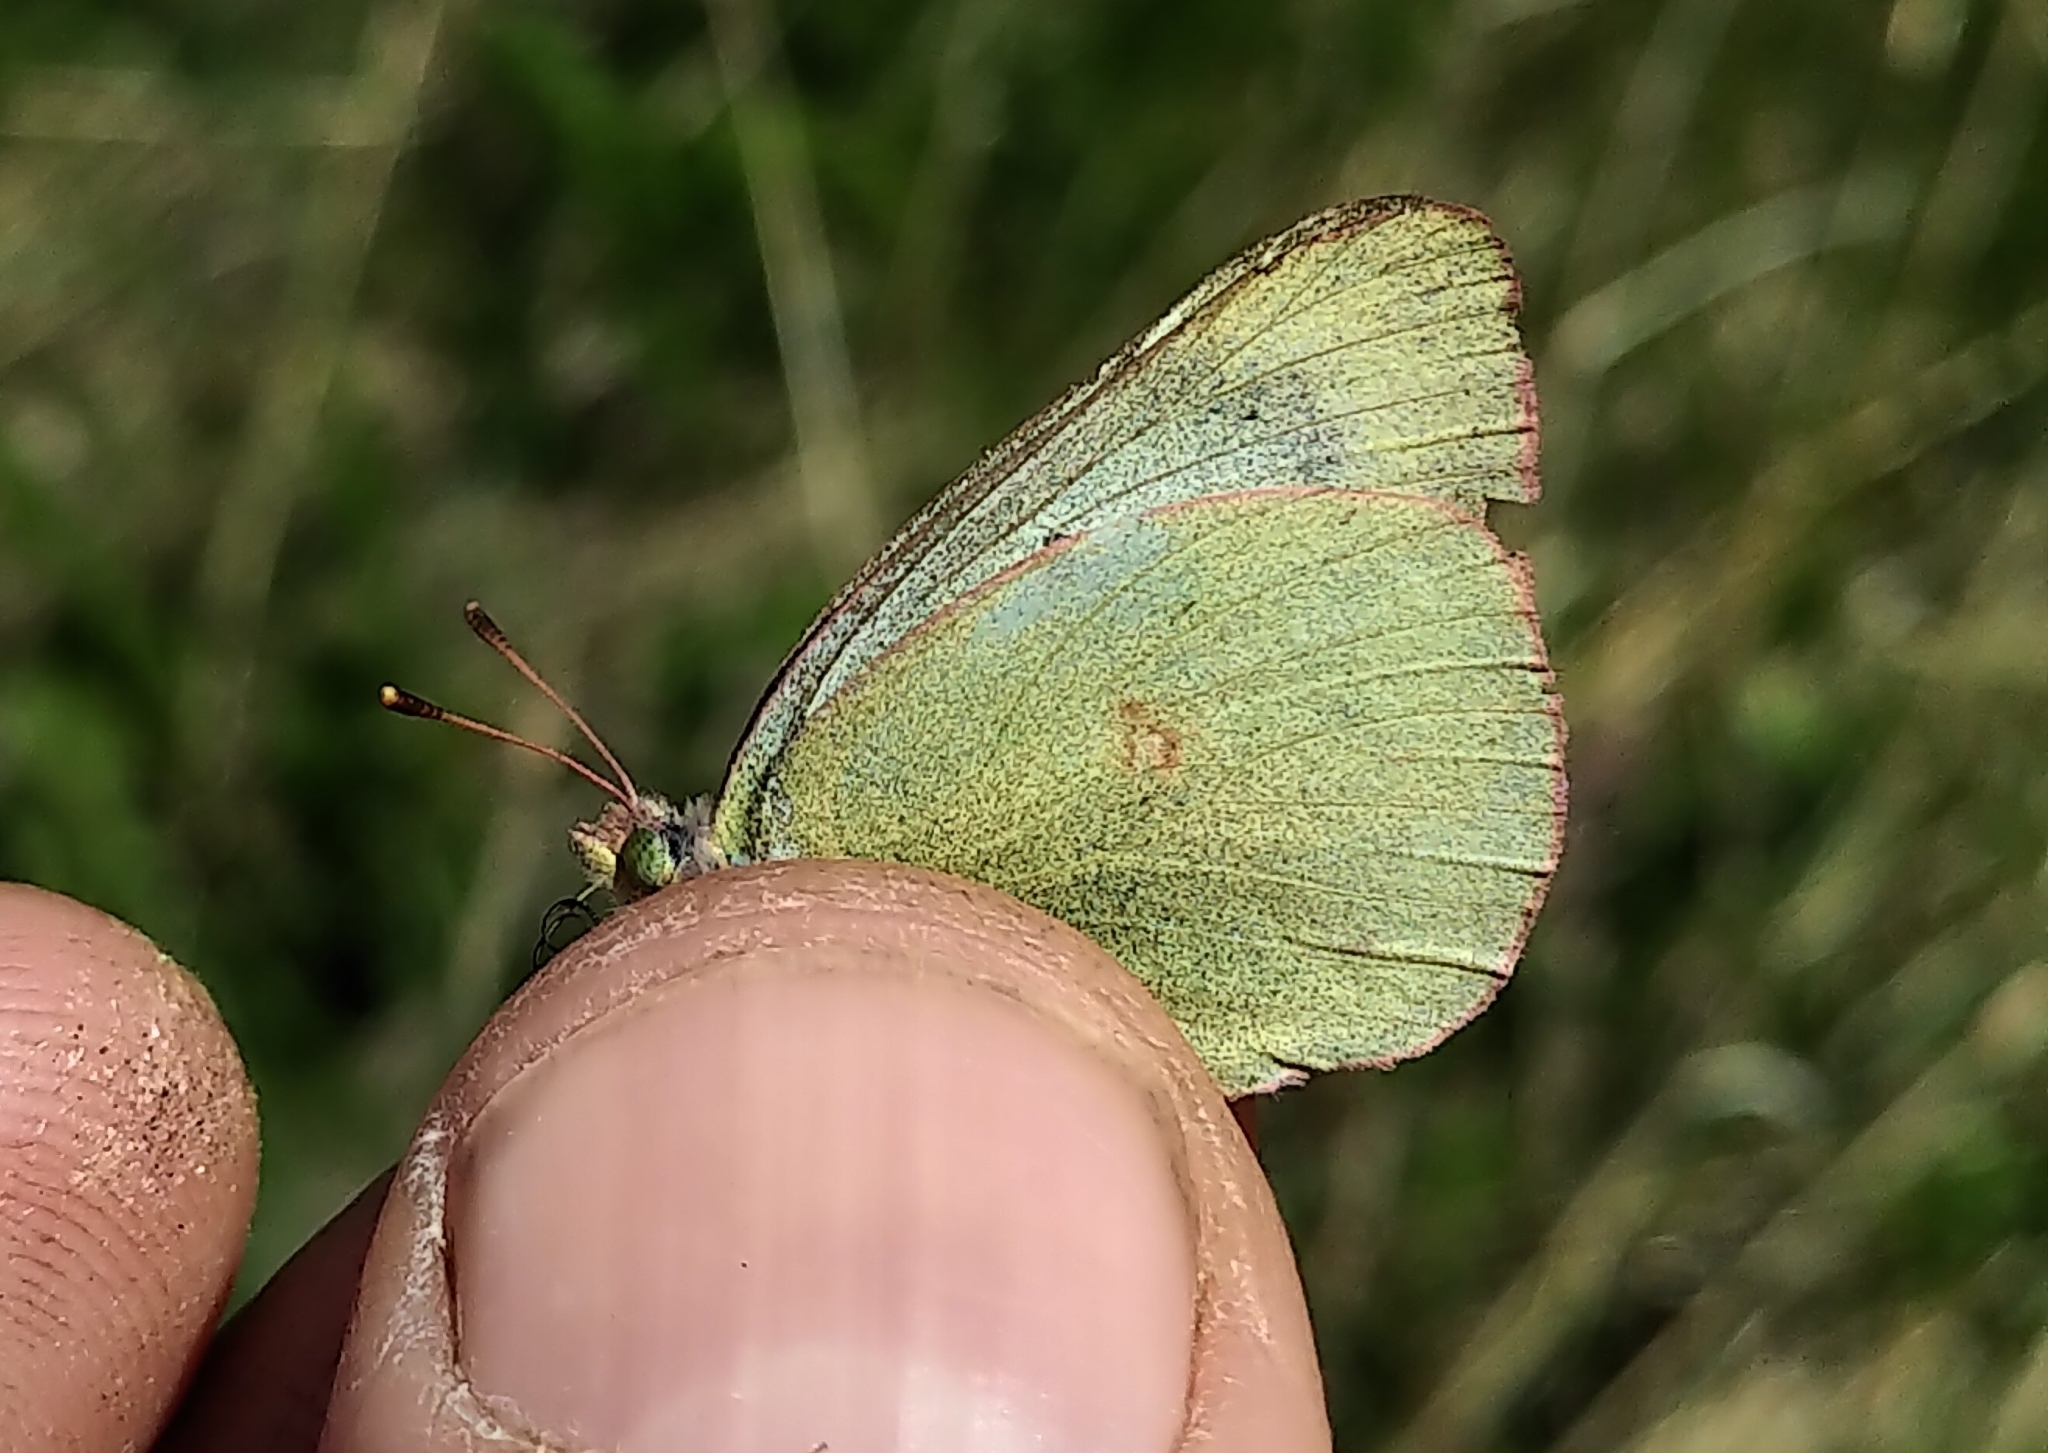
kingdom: Animalia
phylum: Arthropoda
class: Insecta
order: Lepidoptera
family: Pieridae
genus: Colias
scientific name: Colias philodice
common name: Clouded sulphur
